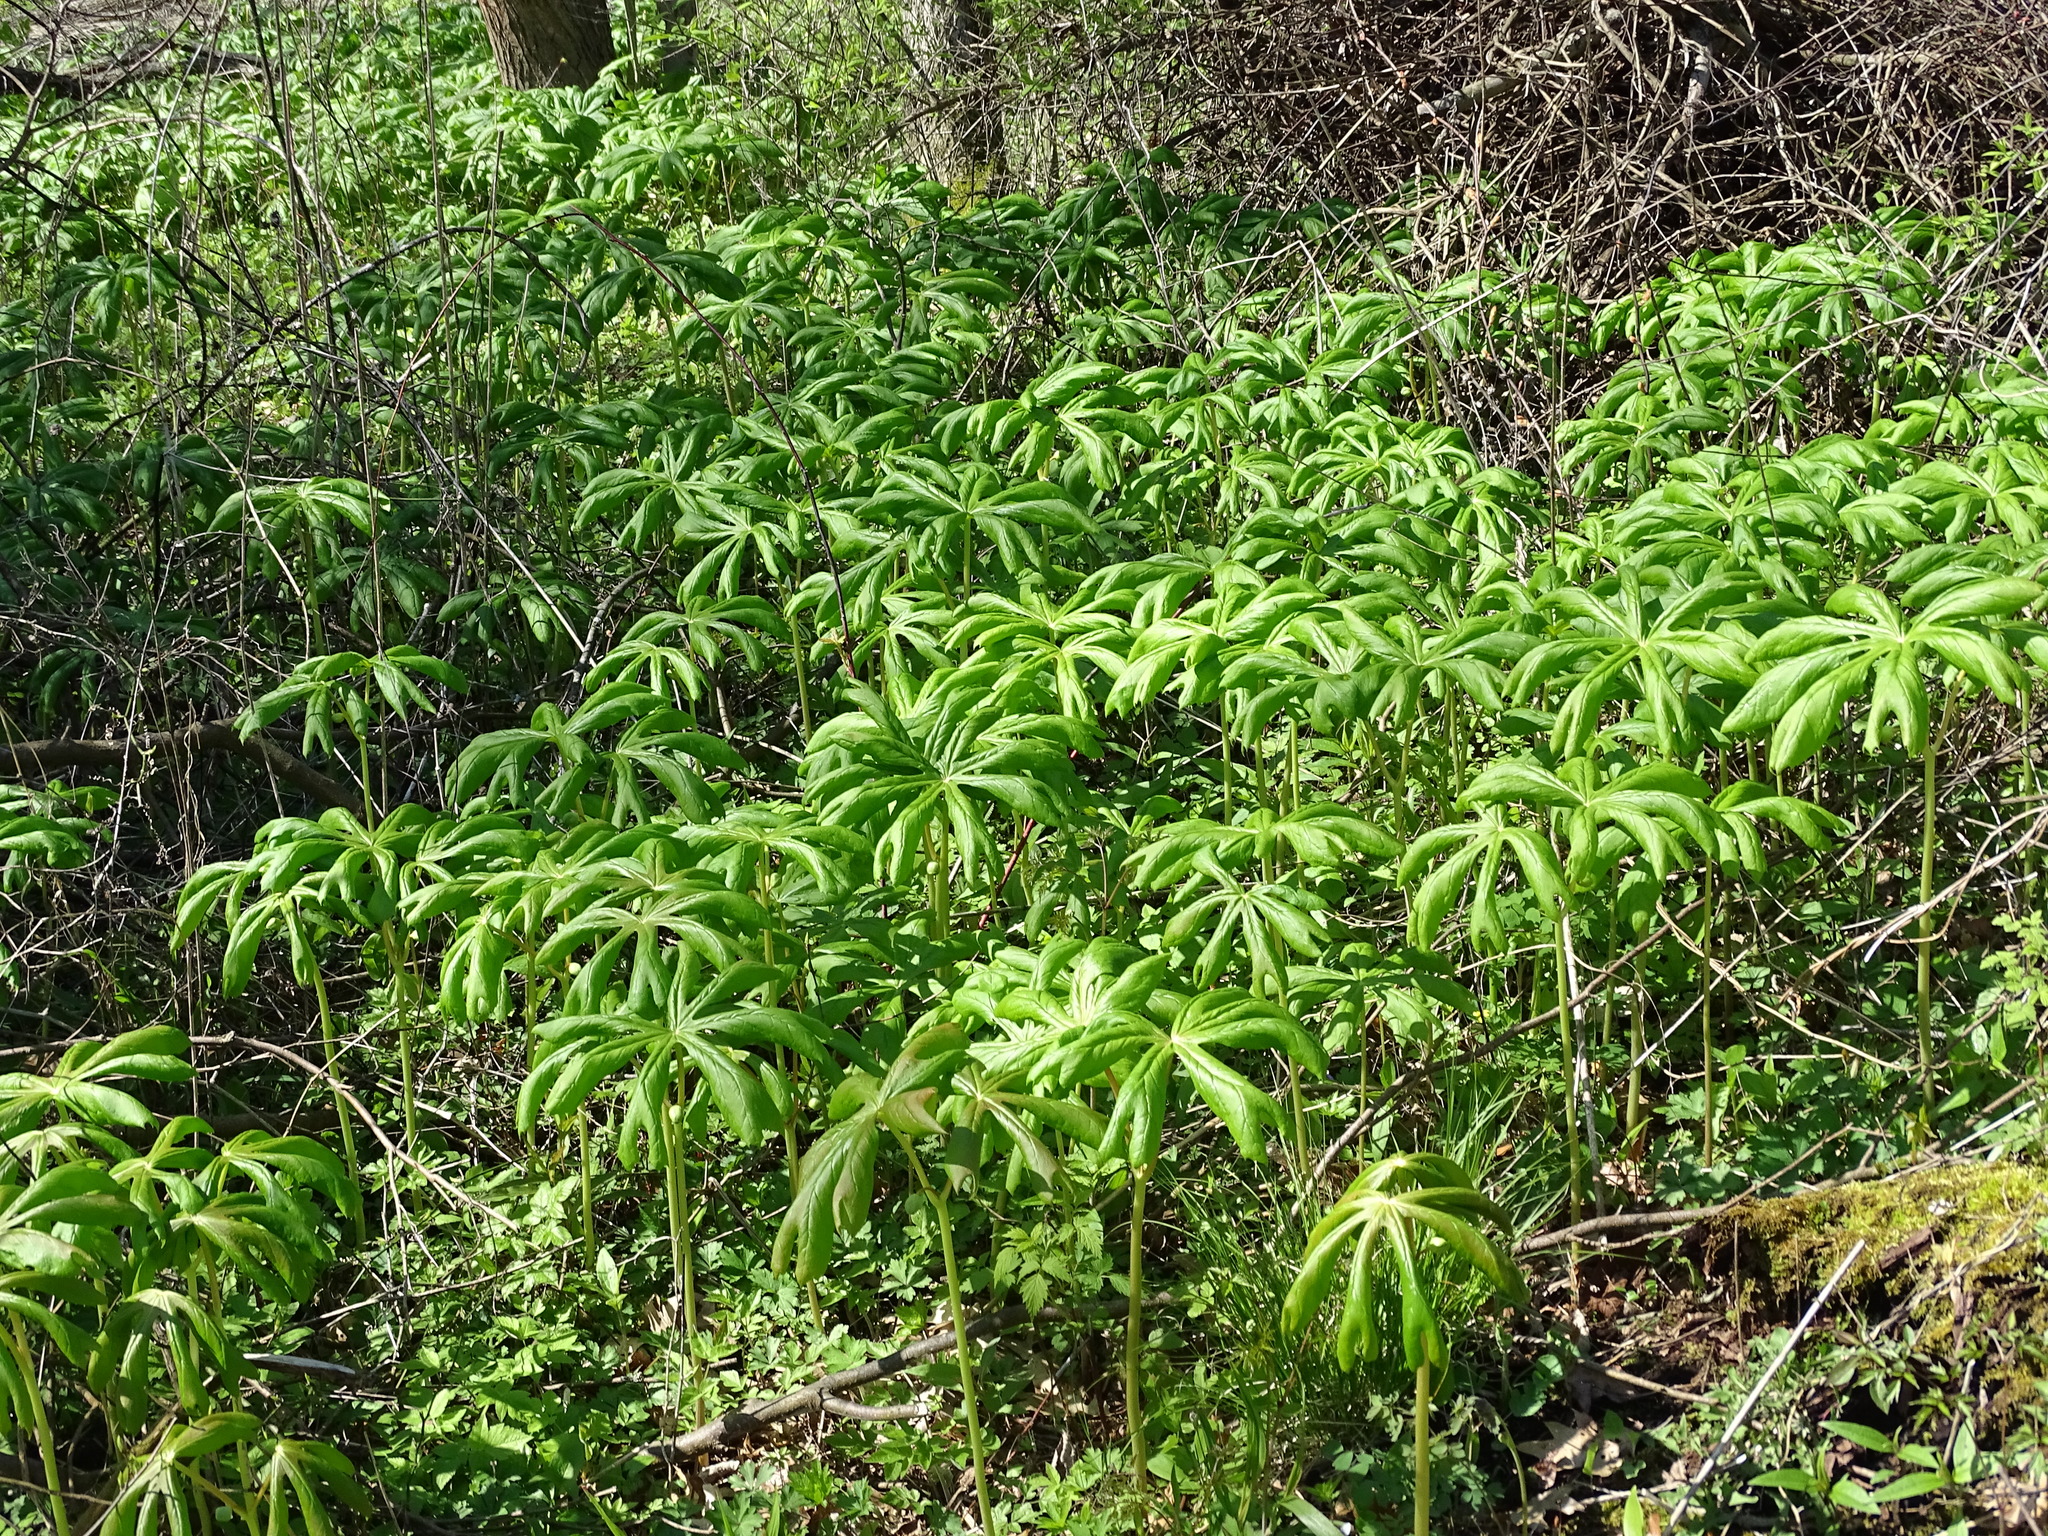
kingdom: Plantae
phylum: Tracheophyta
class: Magnoliopsida
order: Ranunculales
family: Berberidaceae
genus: Podophyllum
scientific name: Podophyllum peltatum
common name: Wild mandrake
